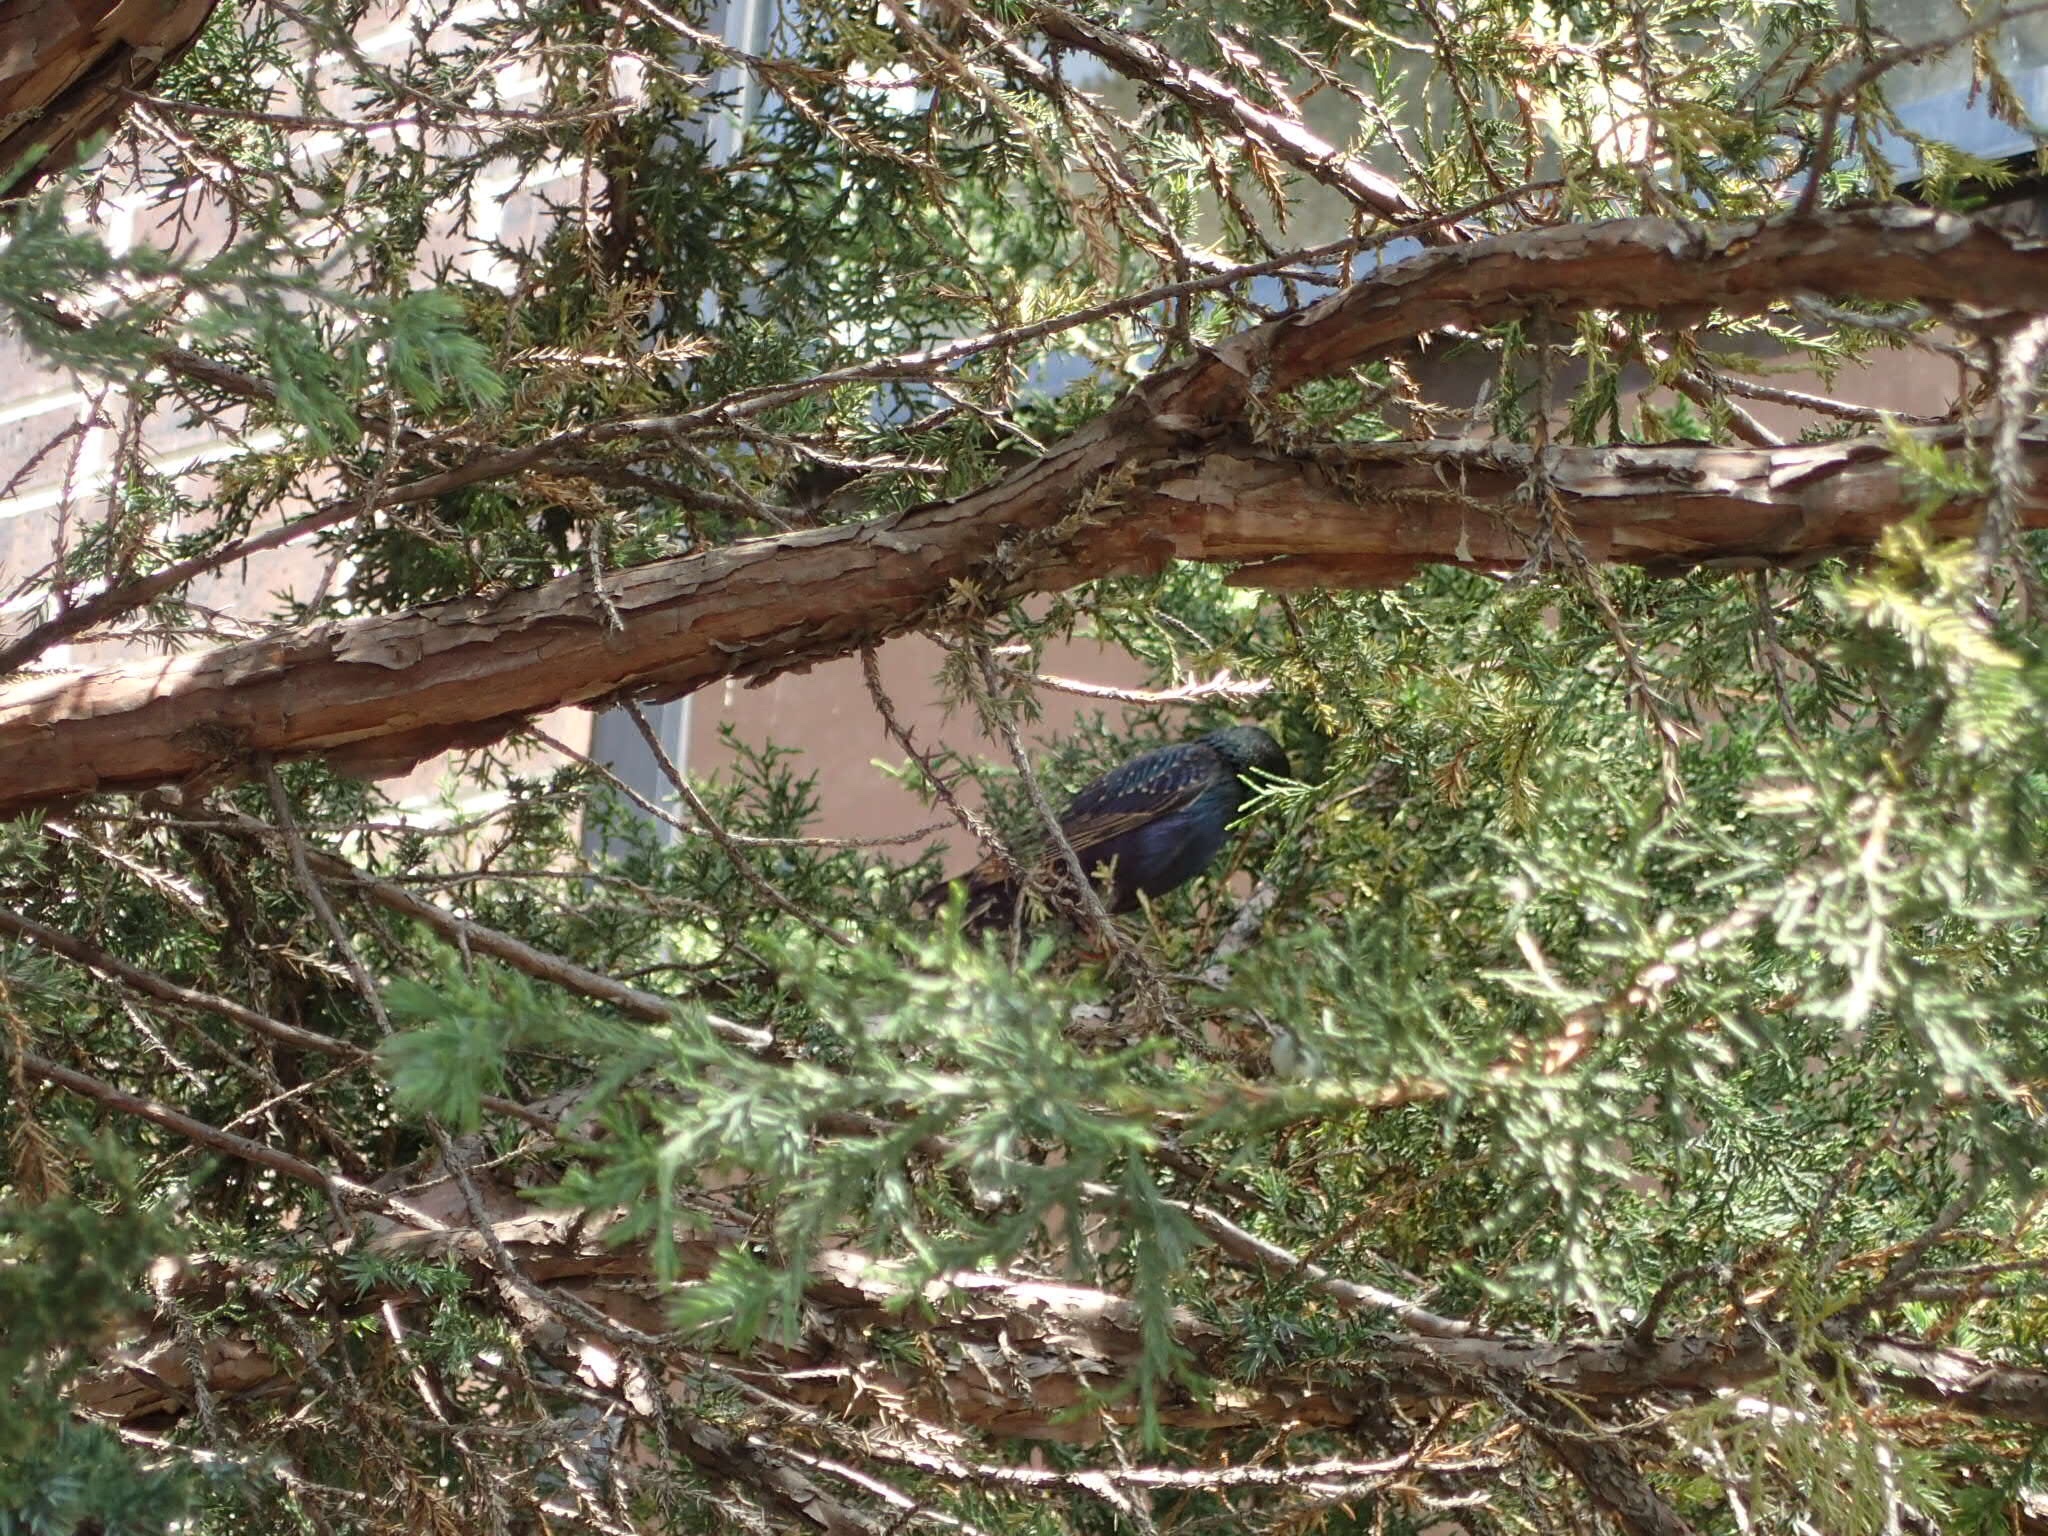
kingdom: Animalia
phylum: Chordata
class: Aves
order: Passeriformes
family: Sturnidae
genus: Sturnus
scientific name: Sturnus vulgaris
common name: Common starling
